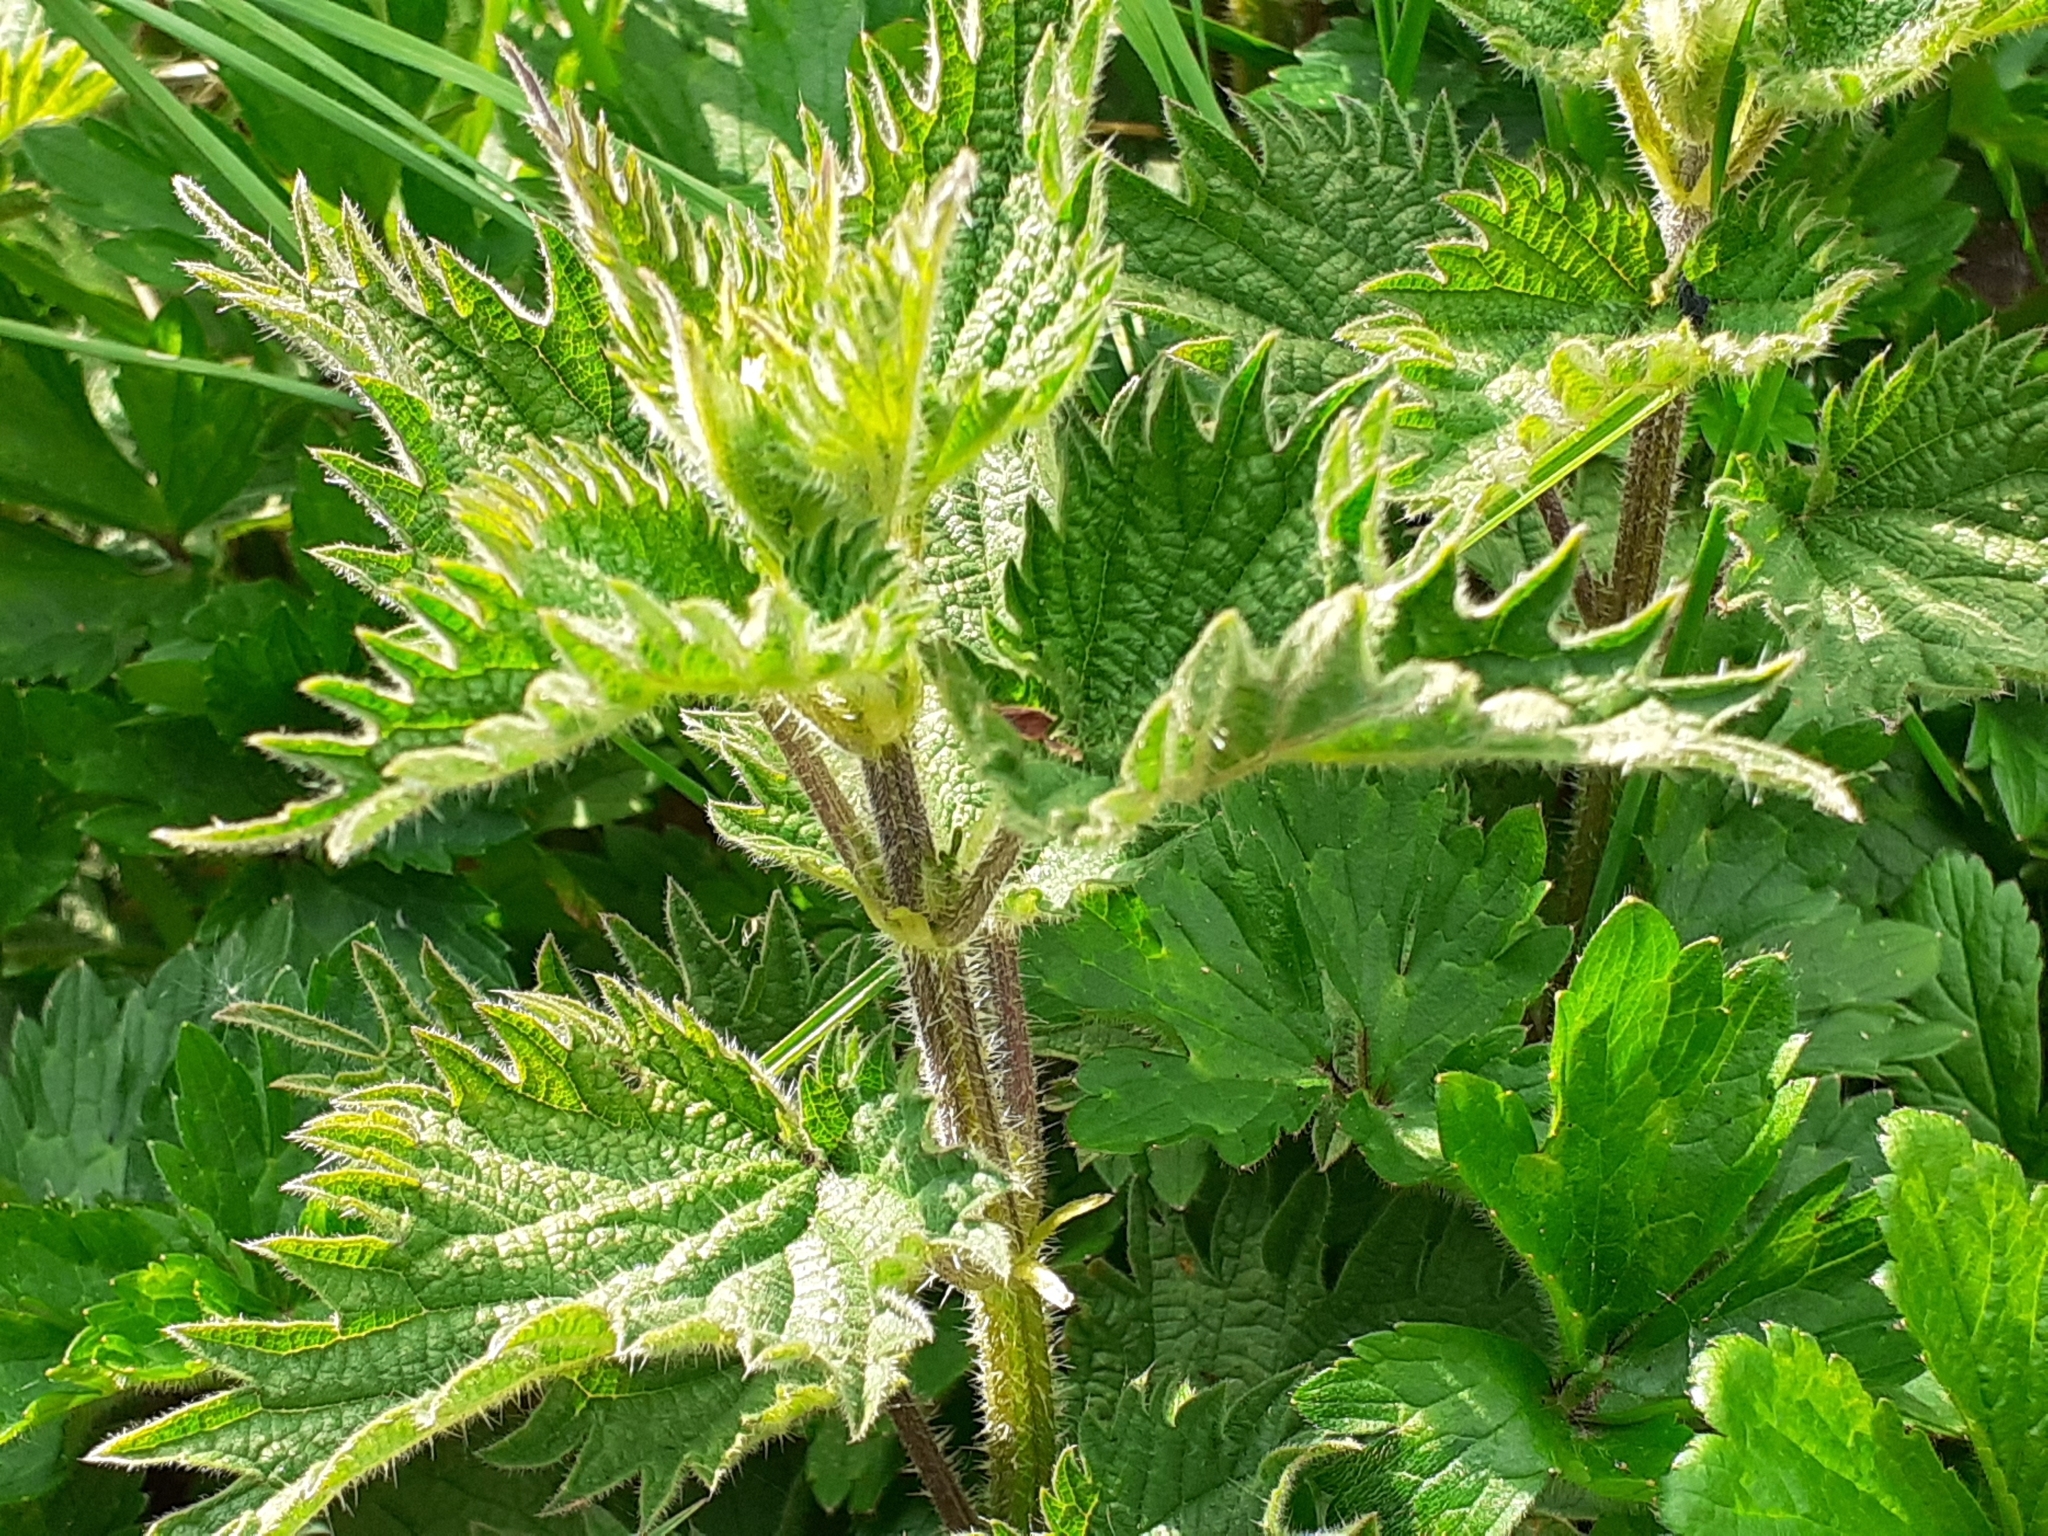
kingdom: Plantae
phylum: Tracheophyta
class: Magnoliopsida
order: Rosales
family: Urticaceae
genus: Urtica
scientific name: Urtica dioica
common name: Common nettle
